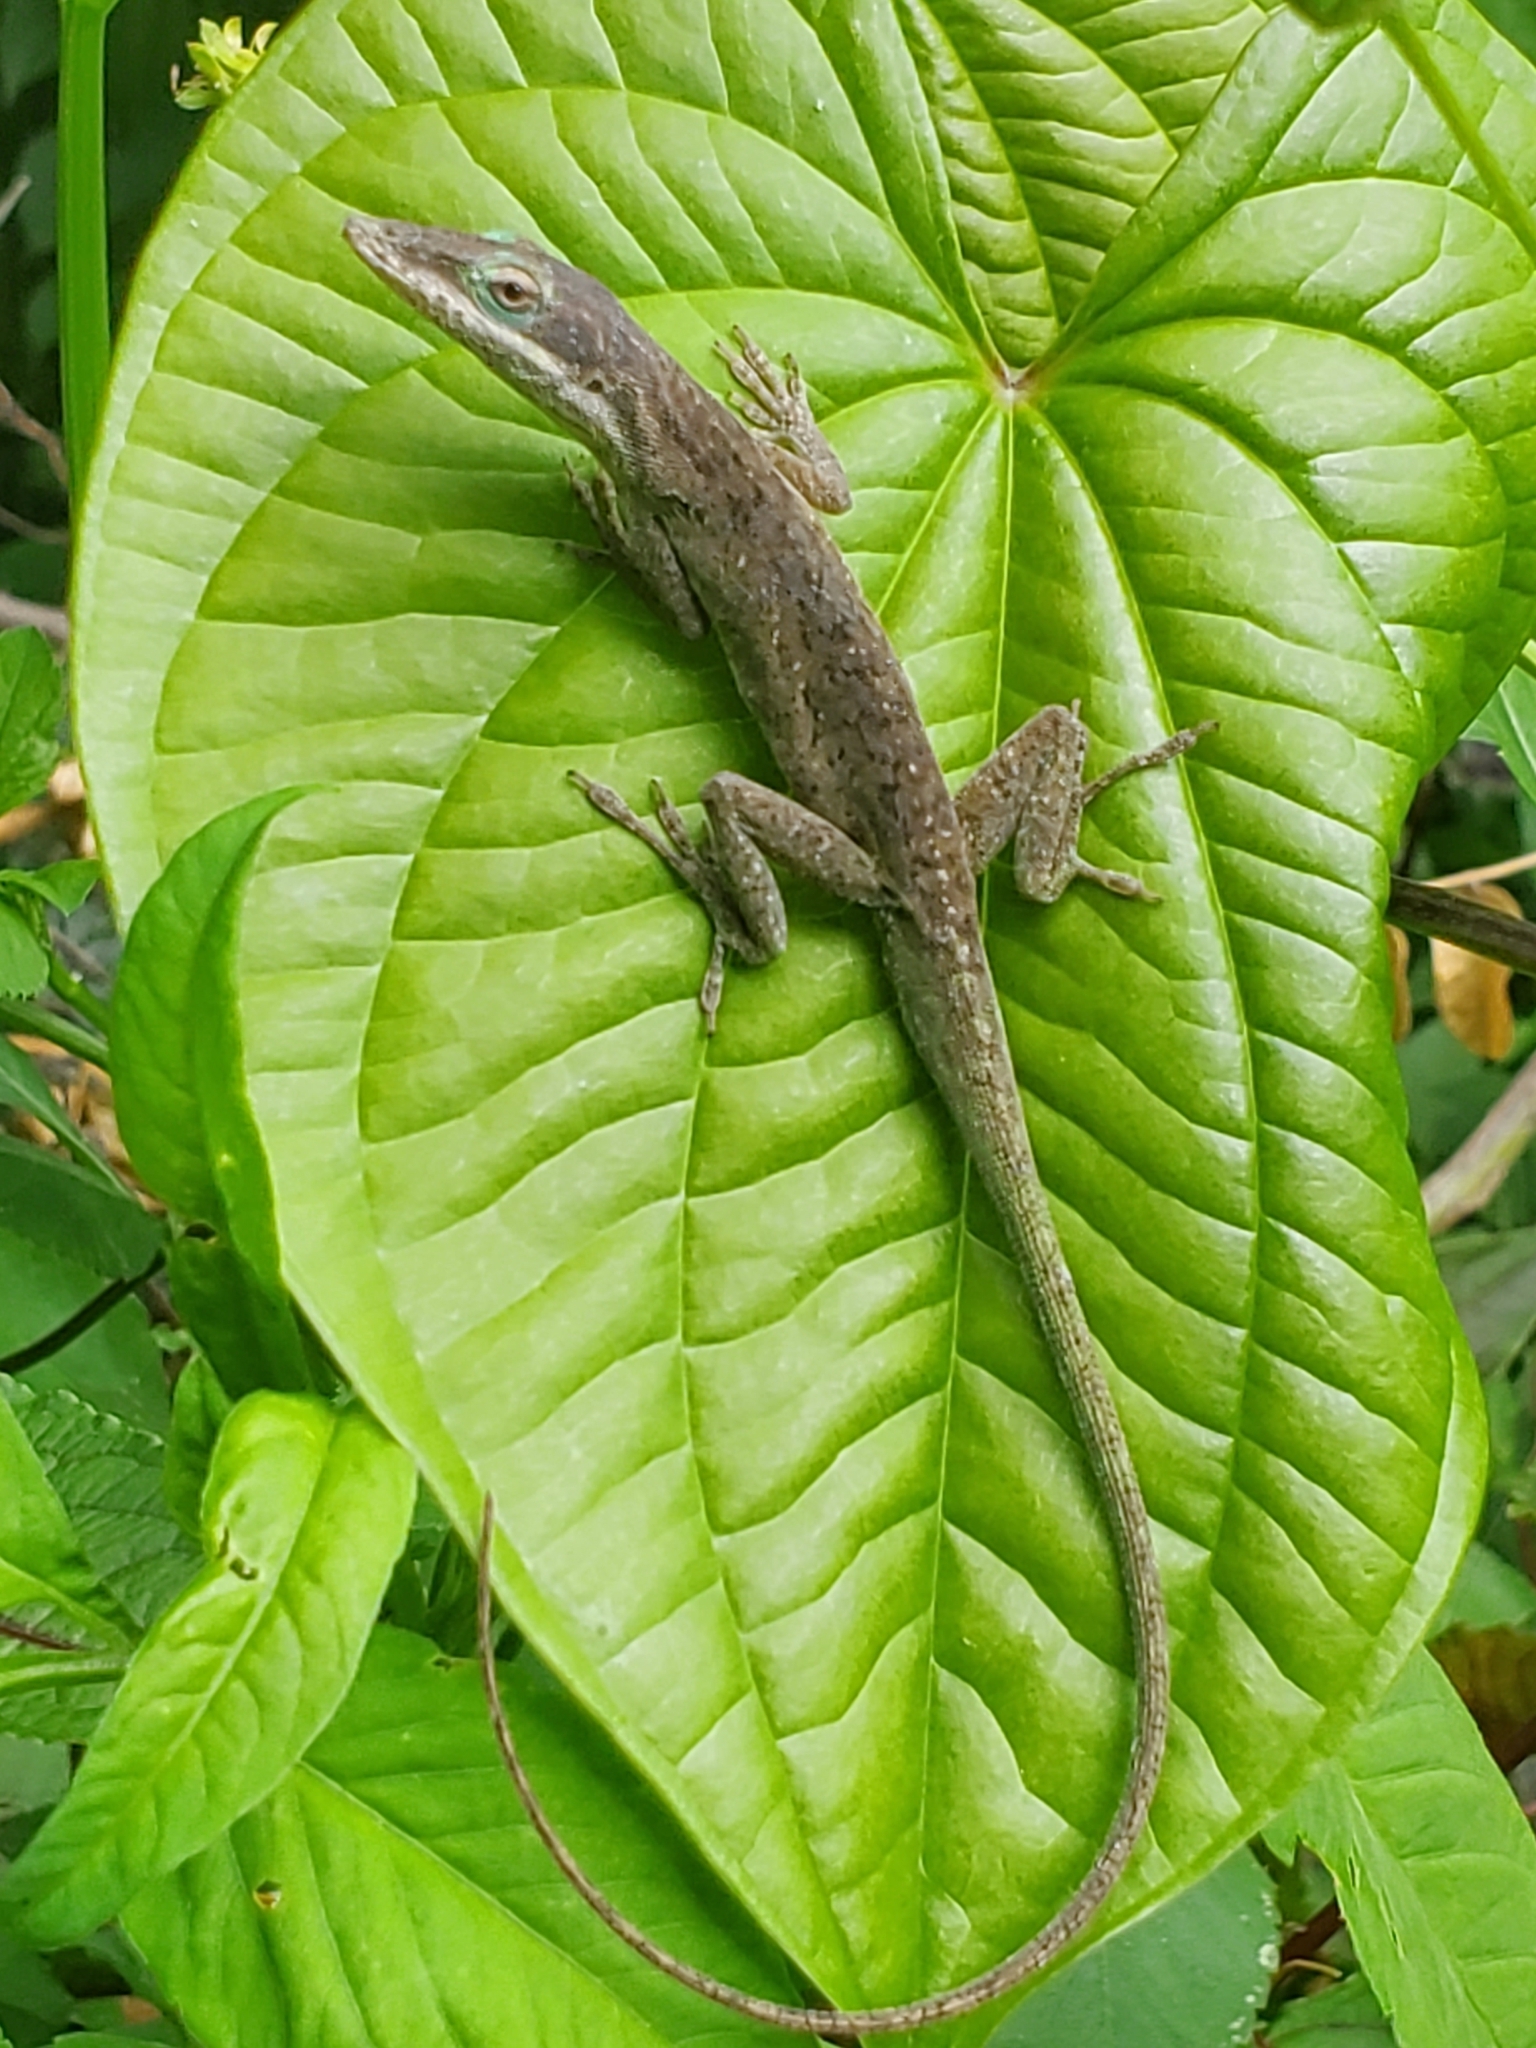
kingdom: Animalia
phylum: Chordata
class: Squamata
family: Dactyloidae
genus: Anolis
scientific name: Anolis carolinensis
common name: Green anole
